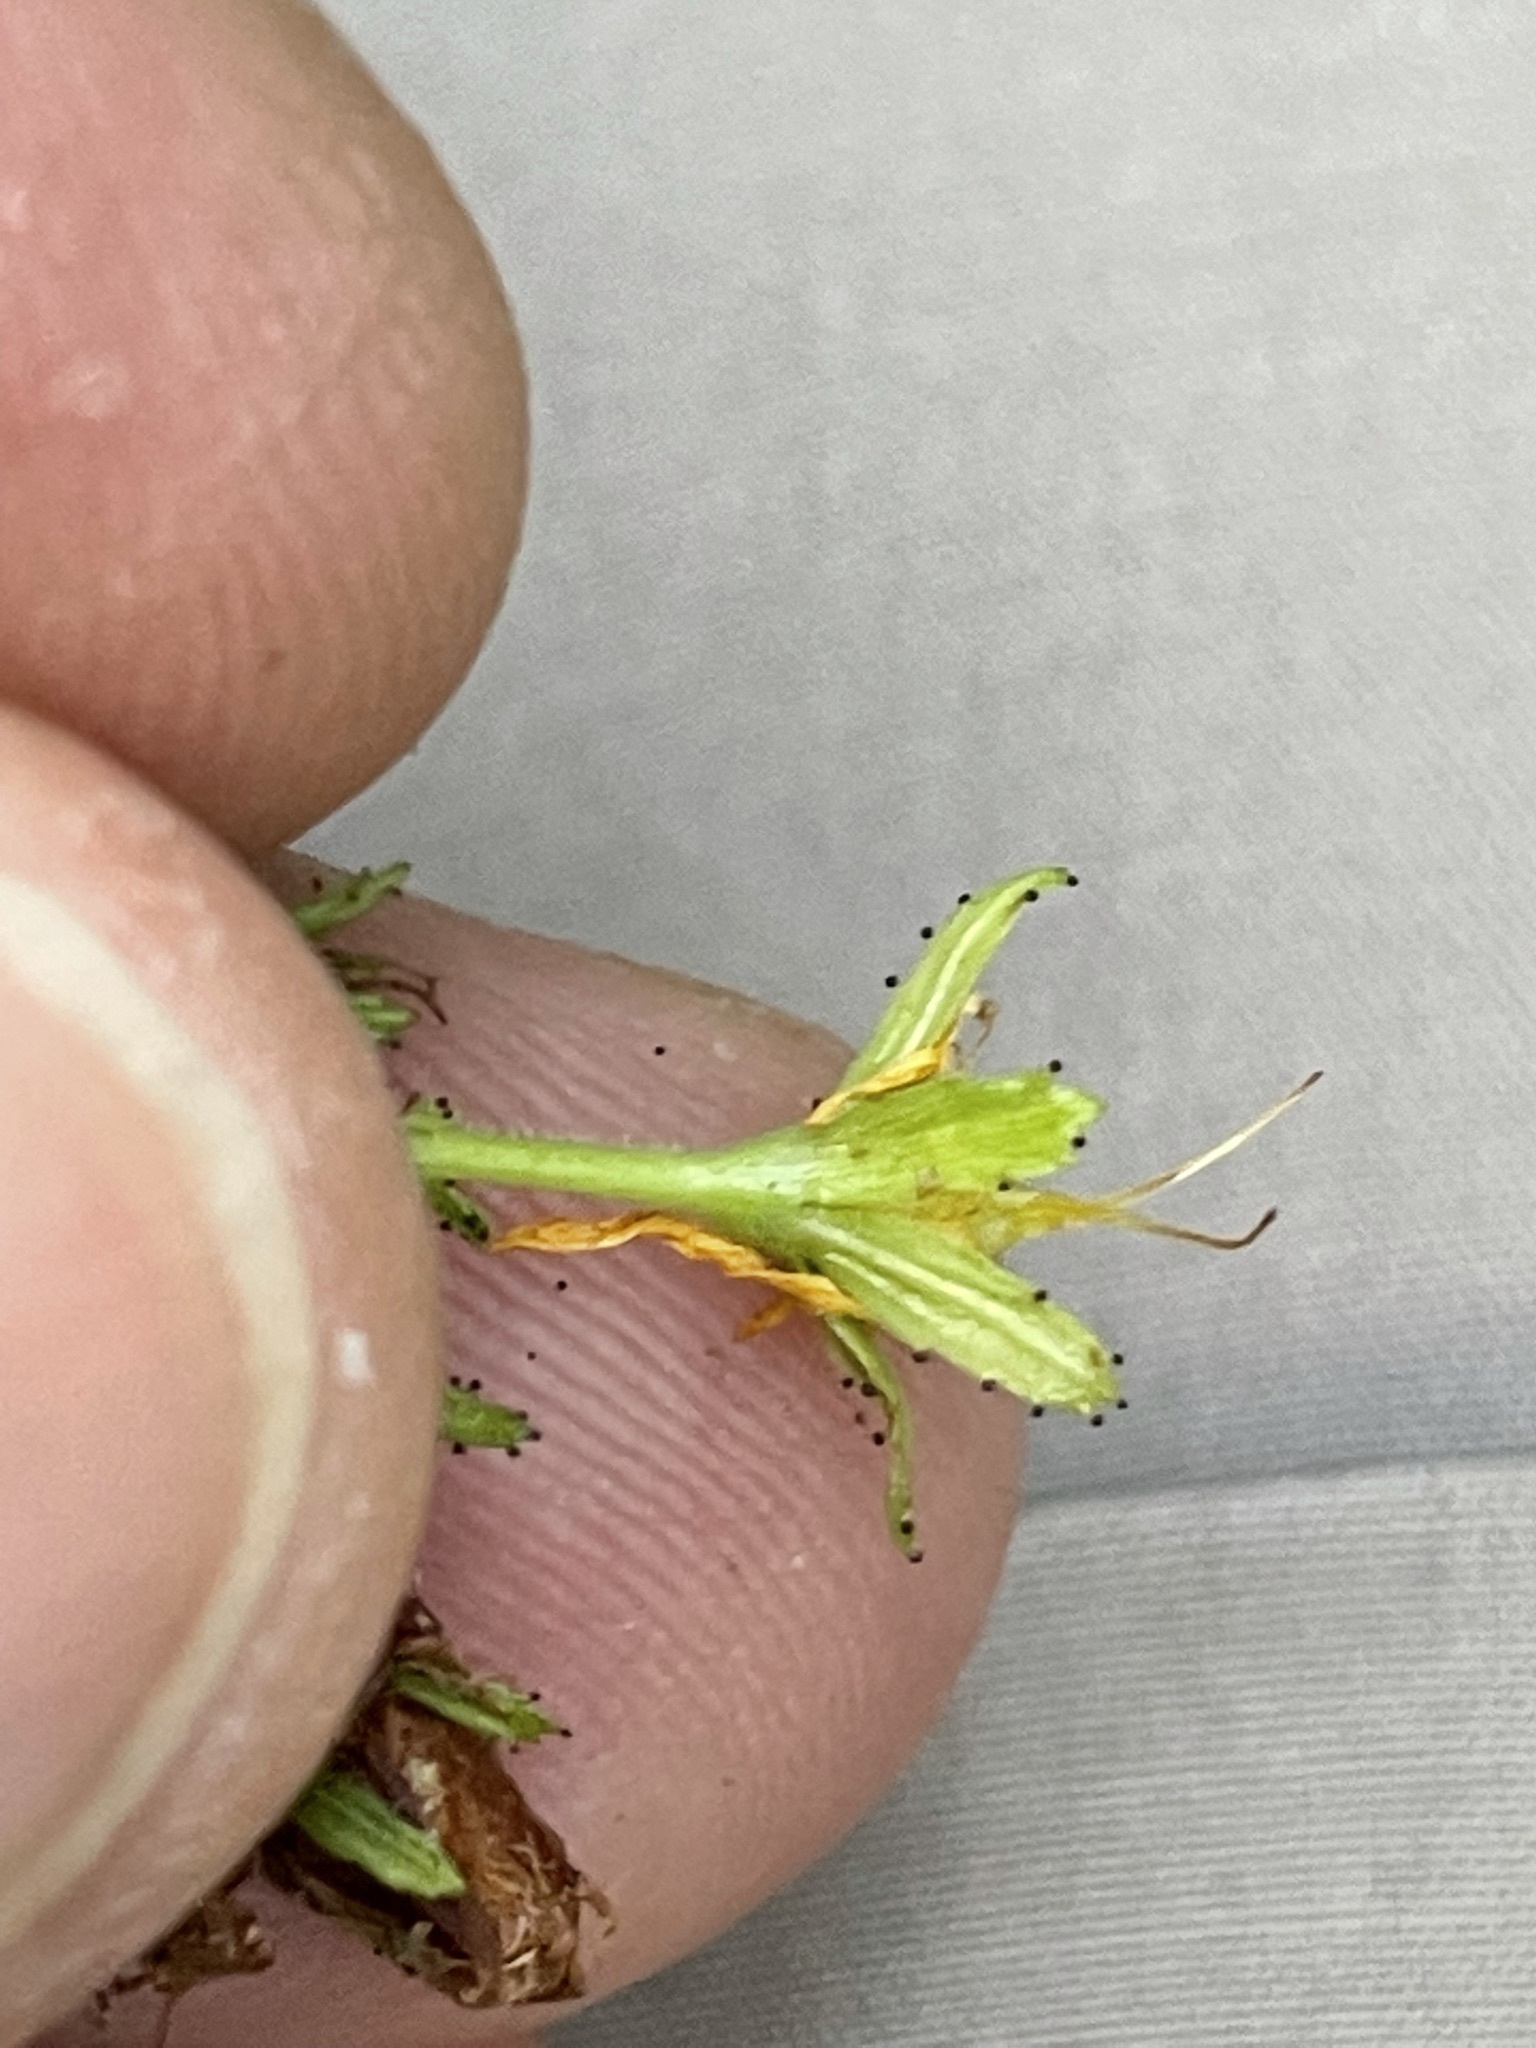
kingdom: Plantae
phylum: Tracheophyta
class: Magnoliopsida
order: Malpighiales
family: Hypericaceae
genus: Hypericum
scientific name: Hypericum hirsutum
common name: Hairy st. john's-wort
